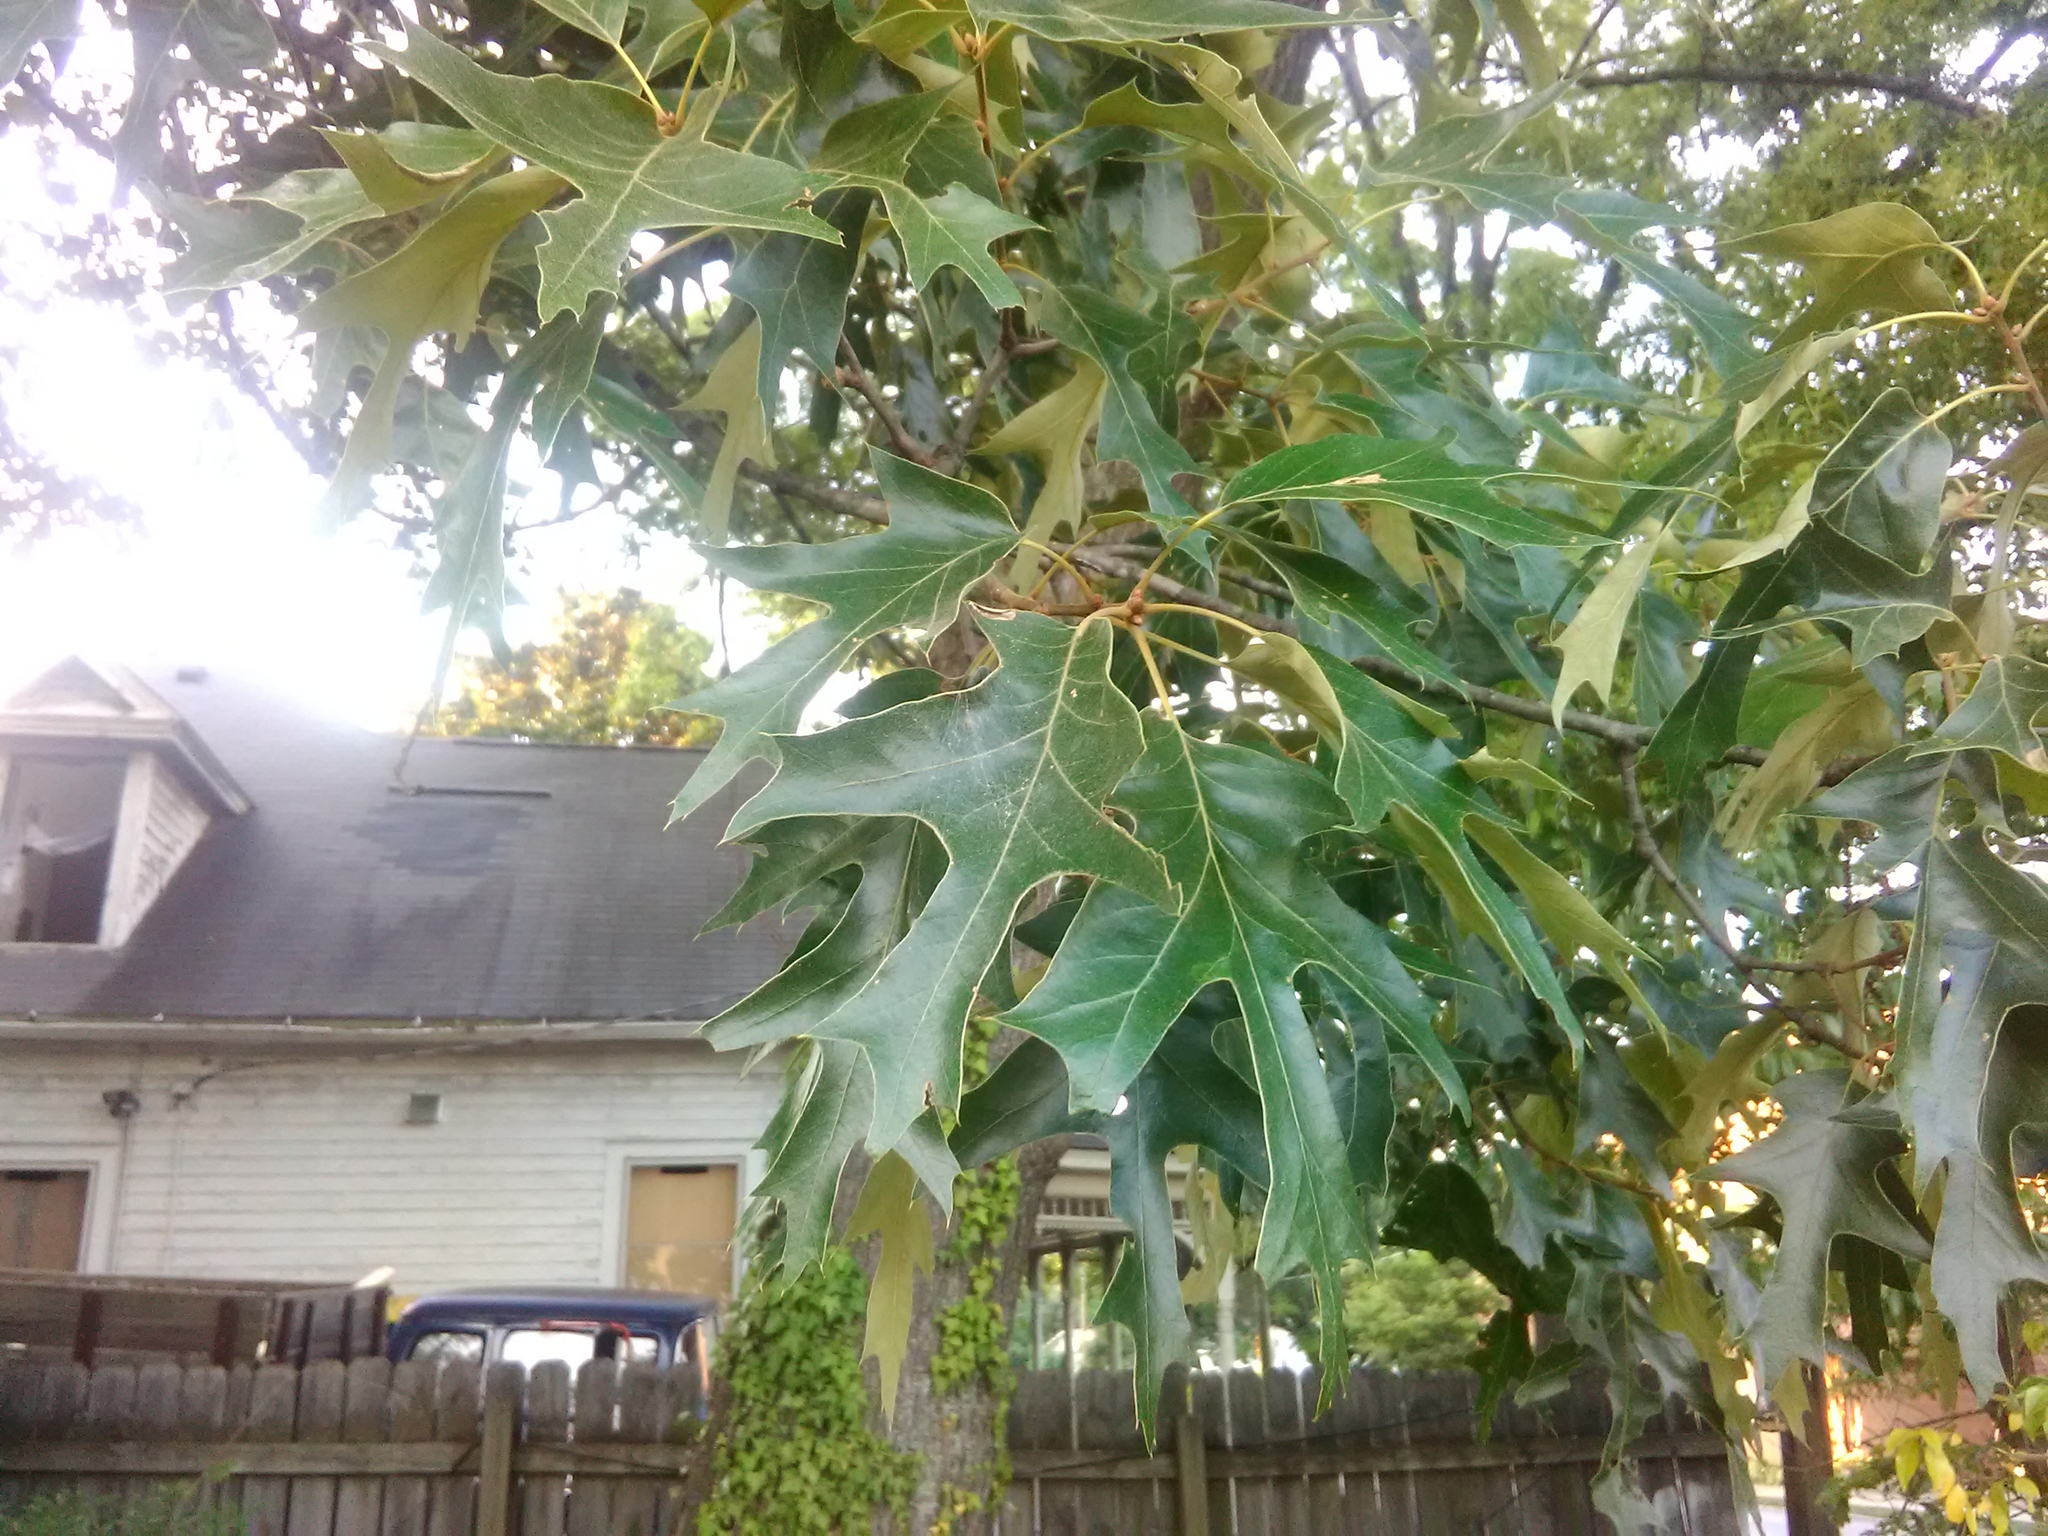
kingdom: Plantae
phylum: Tracheophyta
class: Magnoliopsida
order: Fagales
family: Fagaceae
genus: Quercus
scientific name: Quercus falcata
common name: Southern red oak
